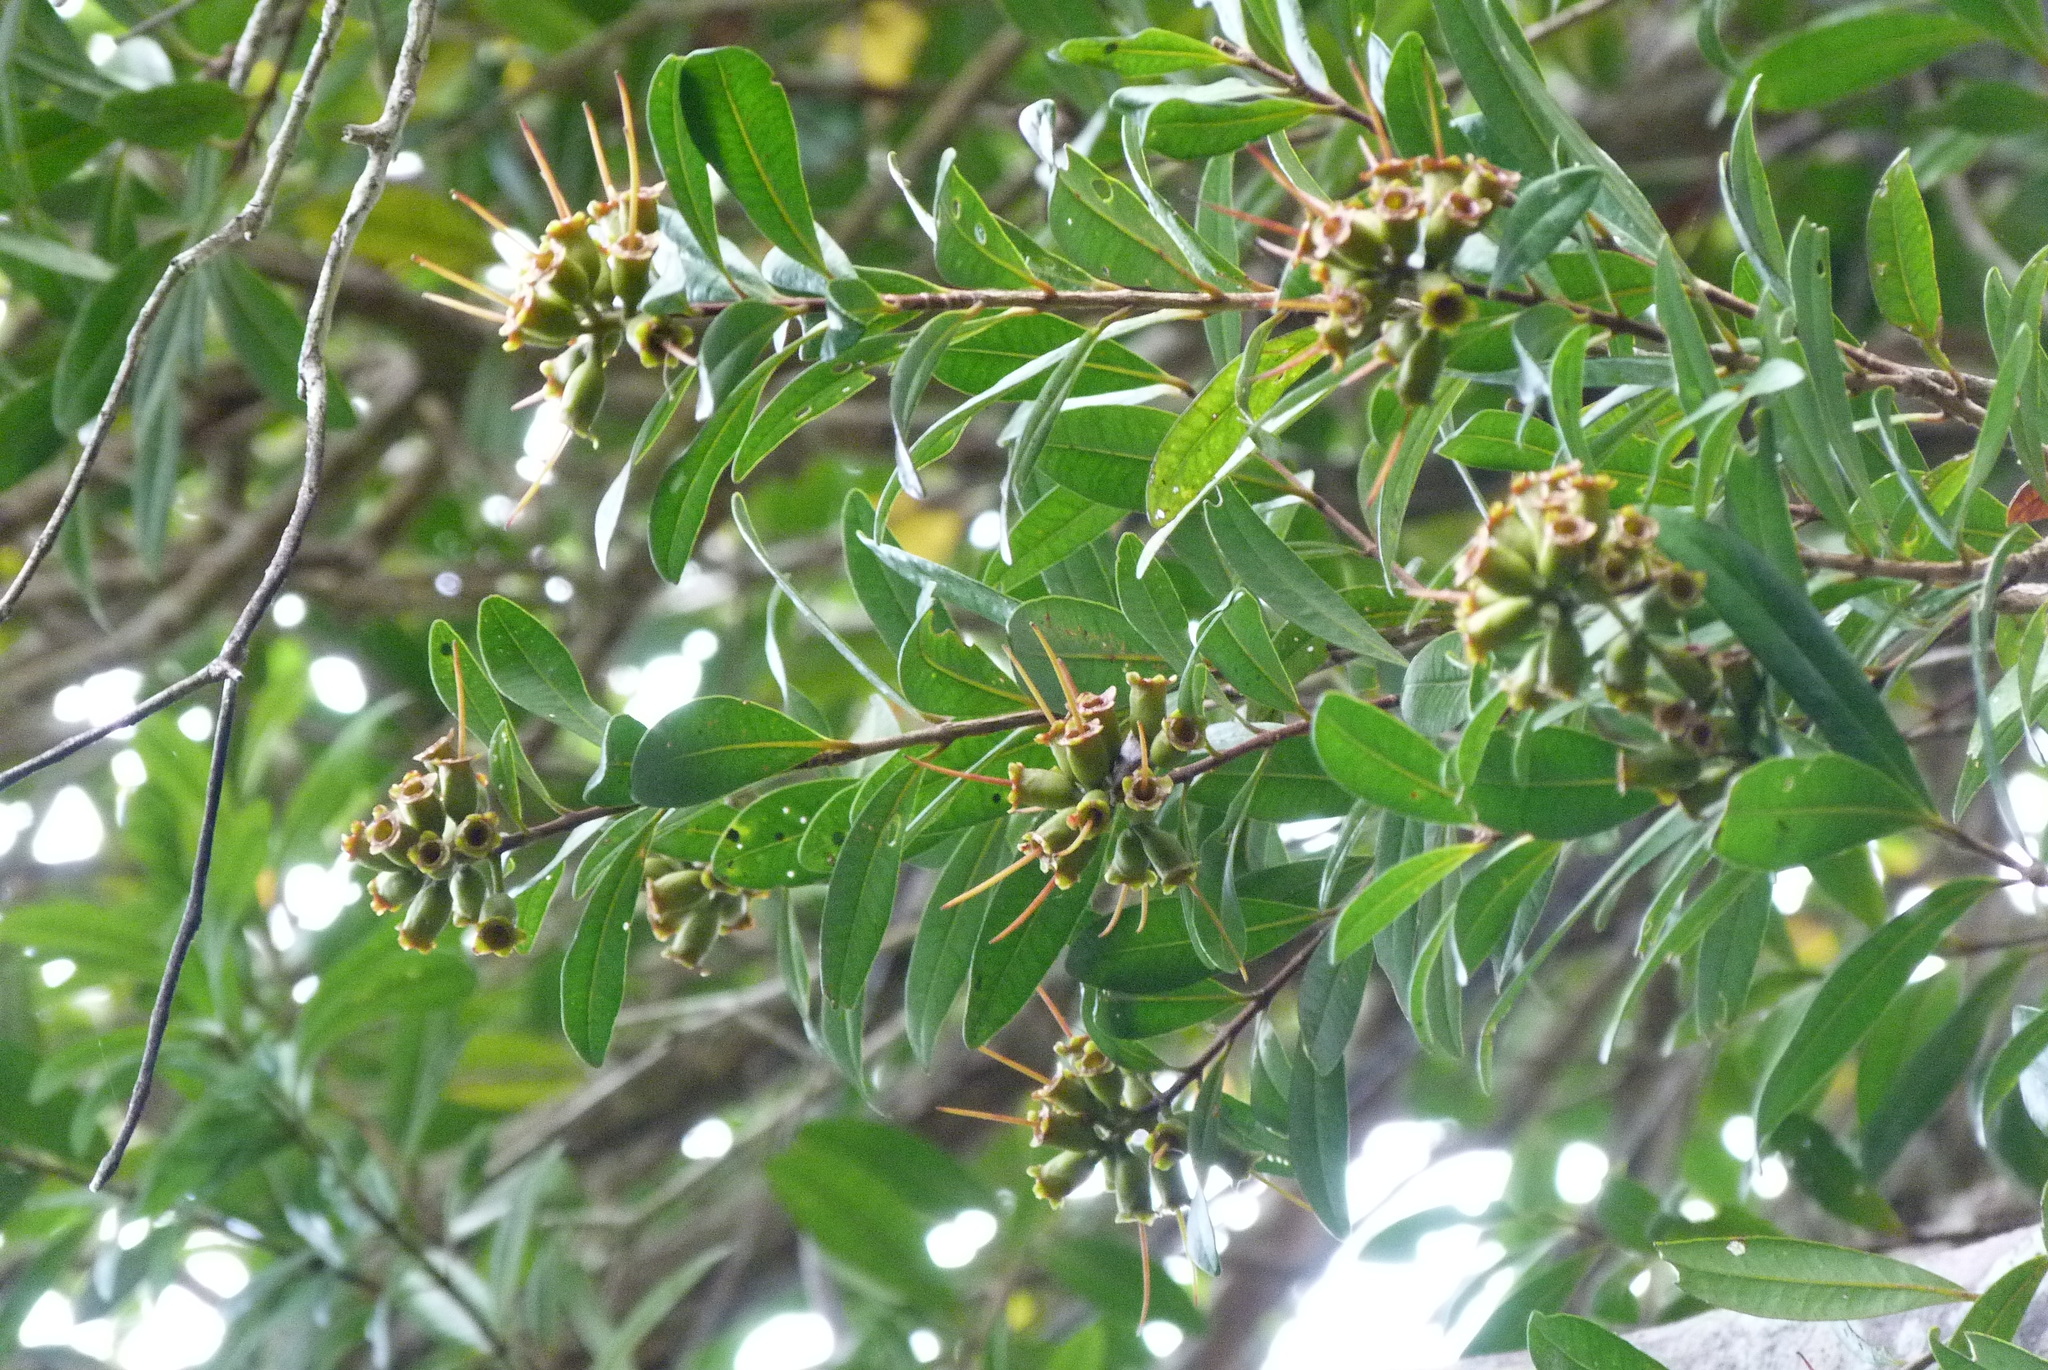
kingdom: Plantae
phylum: Tracheophyta
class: Magnoliopsida
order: Myrtales
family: Myrtaceae
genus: Metrosideros
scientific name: Metrosideros fulgens
